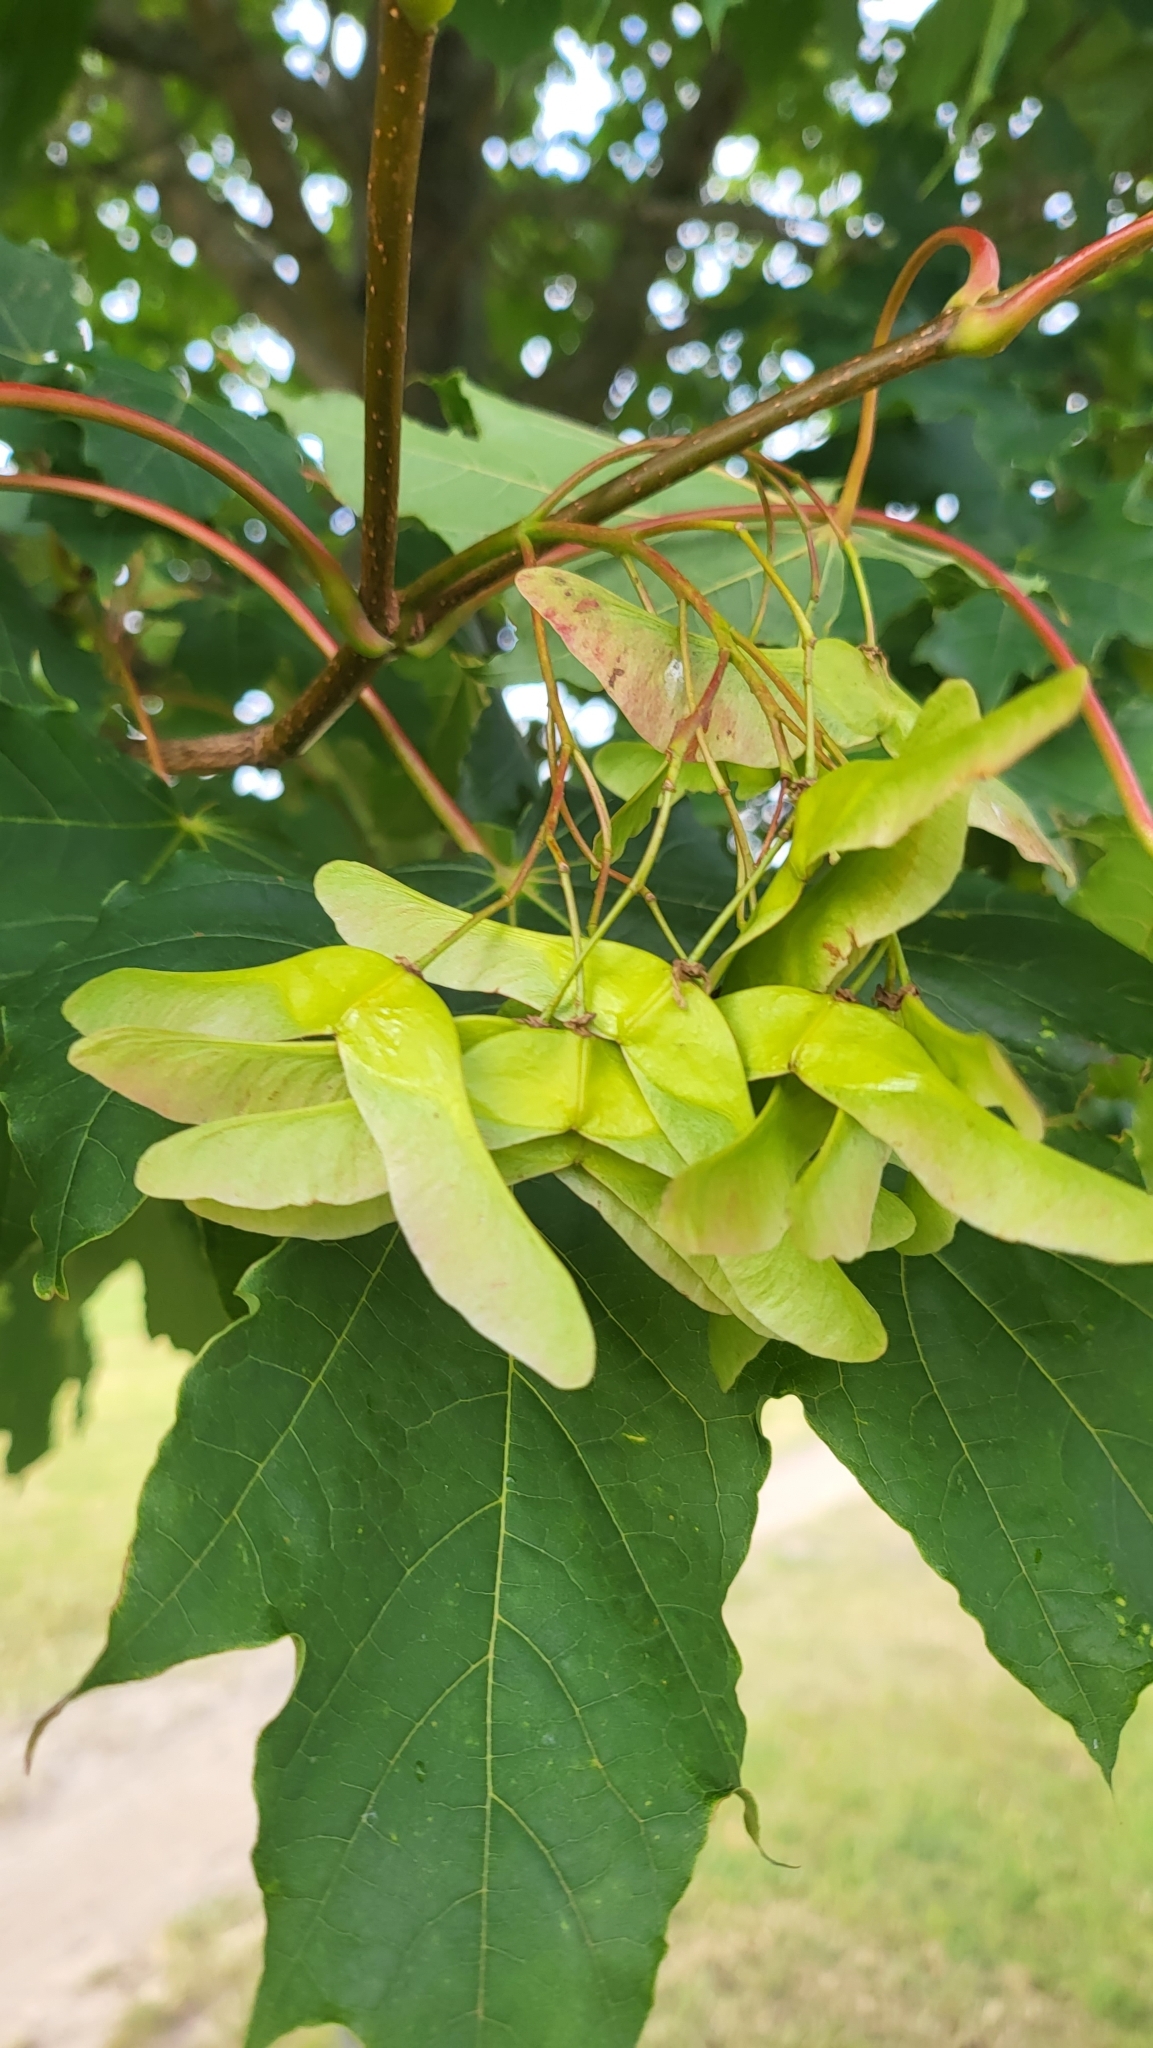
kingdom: Plantae
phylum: Tracheophyta
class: Magnoliopsida
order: Sapindales
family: Sapindaceae
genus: Acer
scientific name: Acer platanoides
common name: Norway maple
